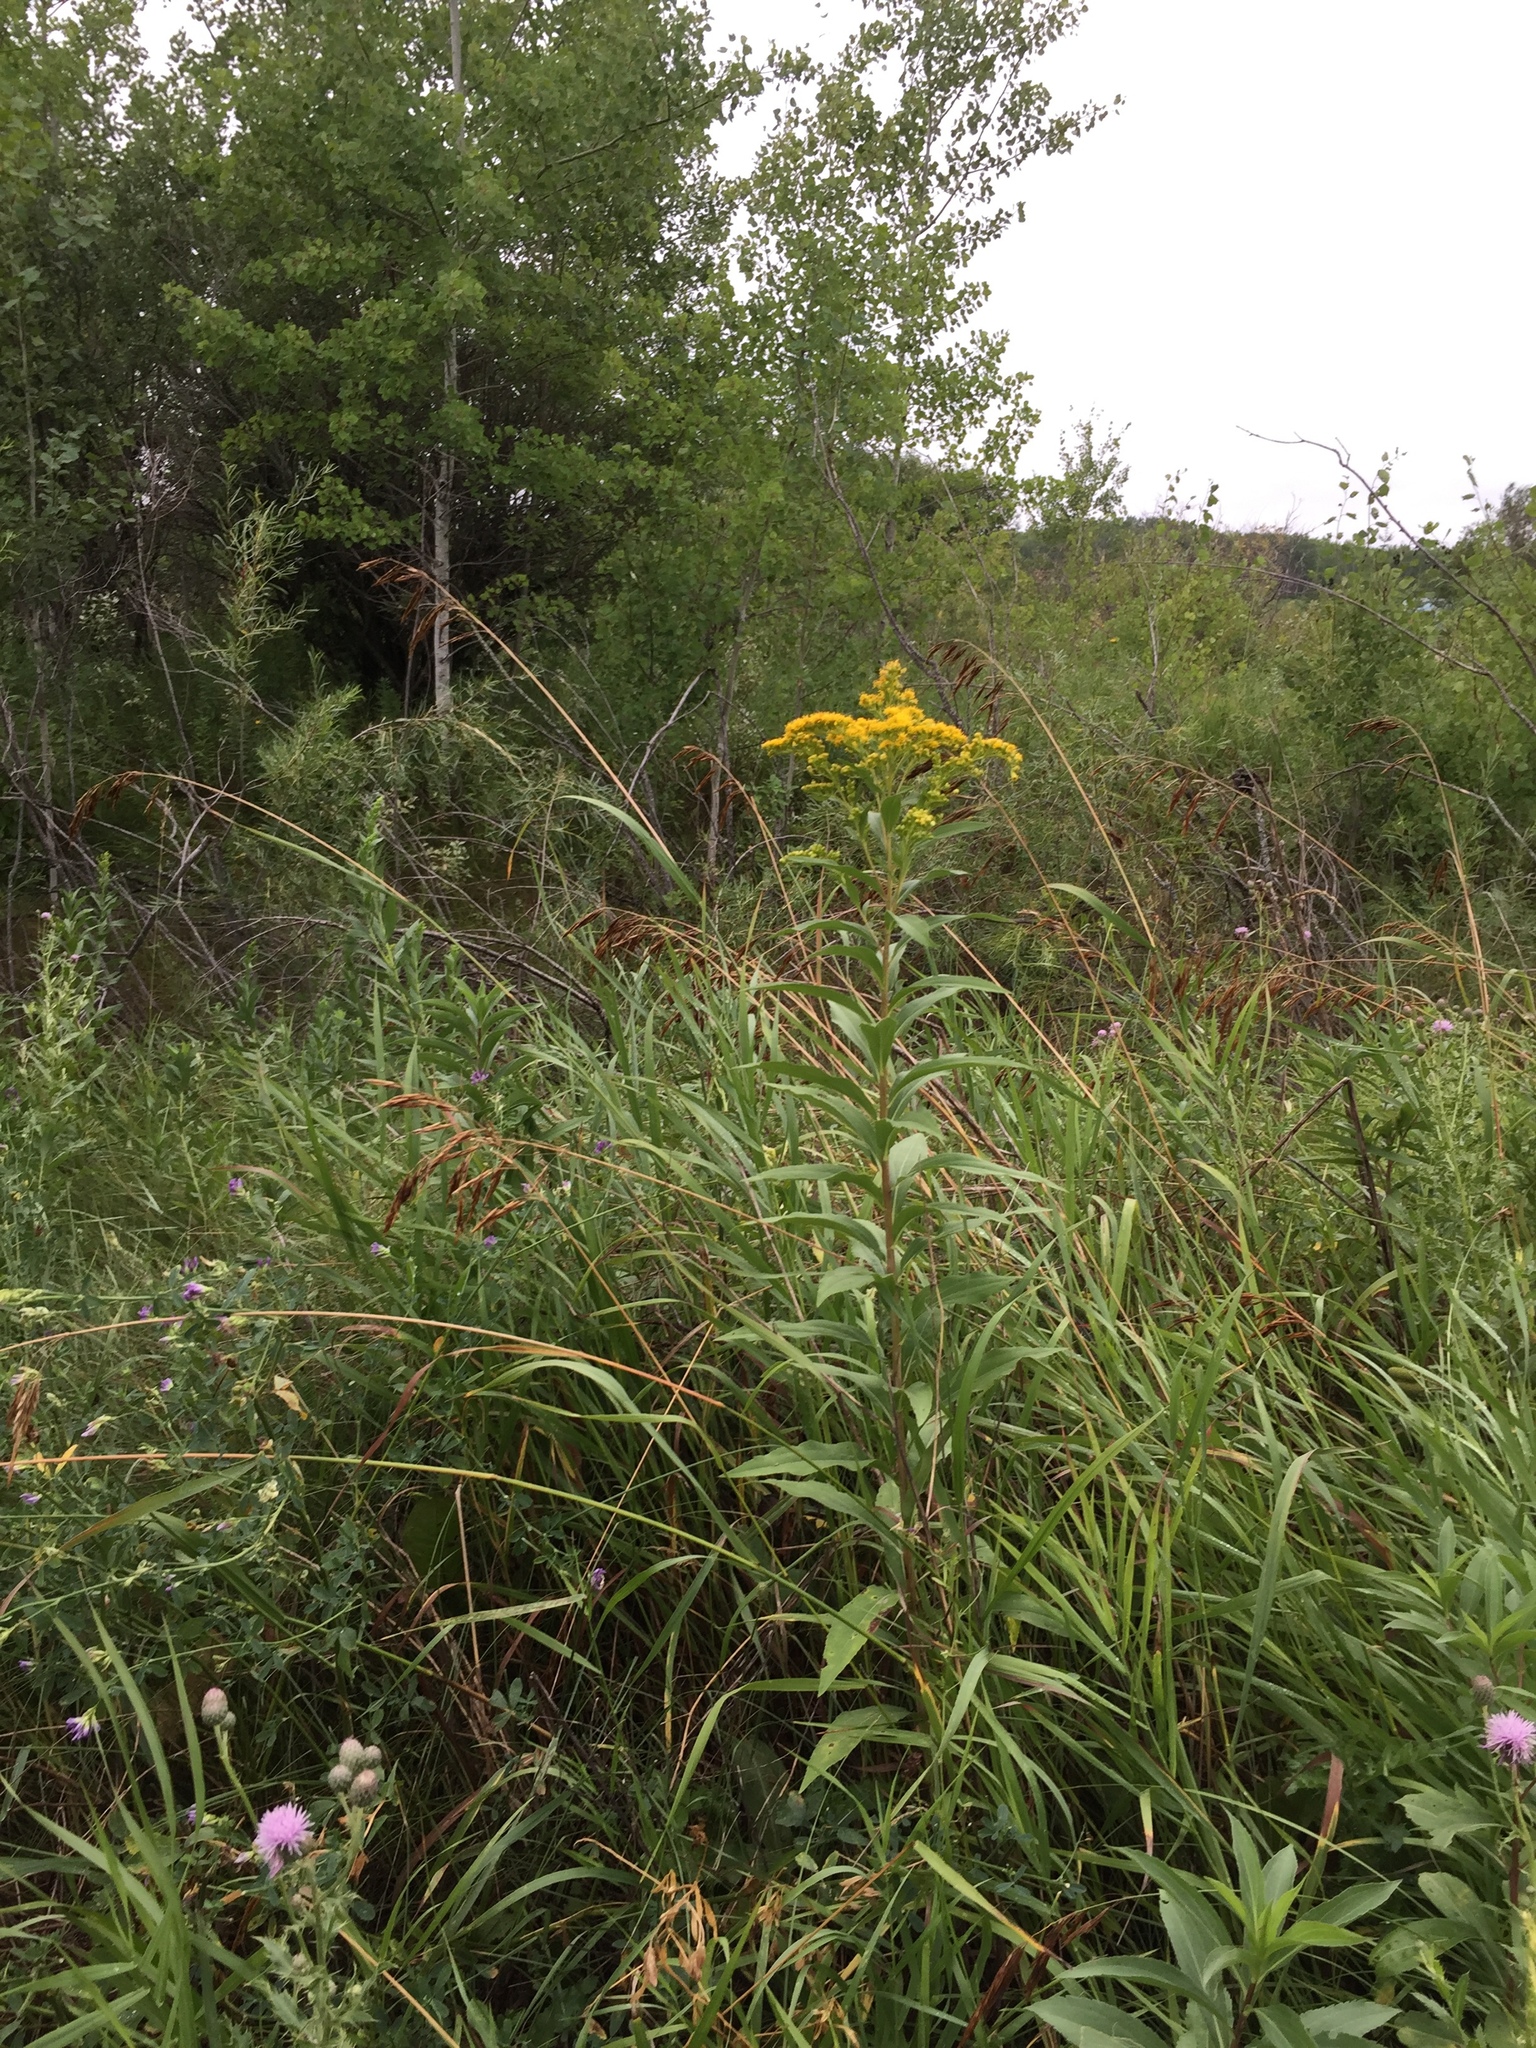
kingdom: Plantae
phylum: Tracheophyta
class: Magnoliopsida
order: Asterales
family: Asteraceae
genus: Solidago
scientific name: Solidago gigantea
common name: Giant goldenrod
